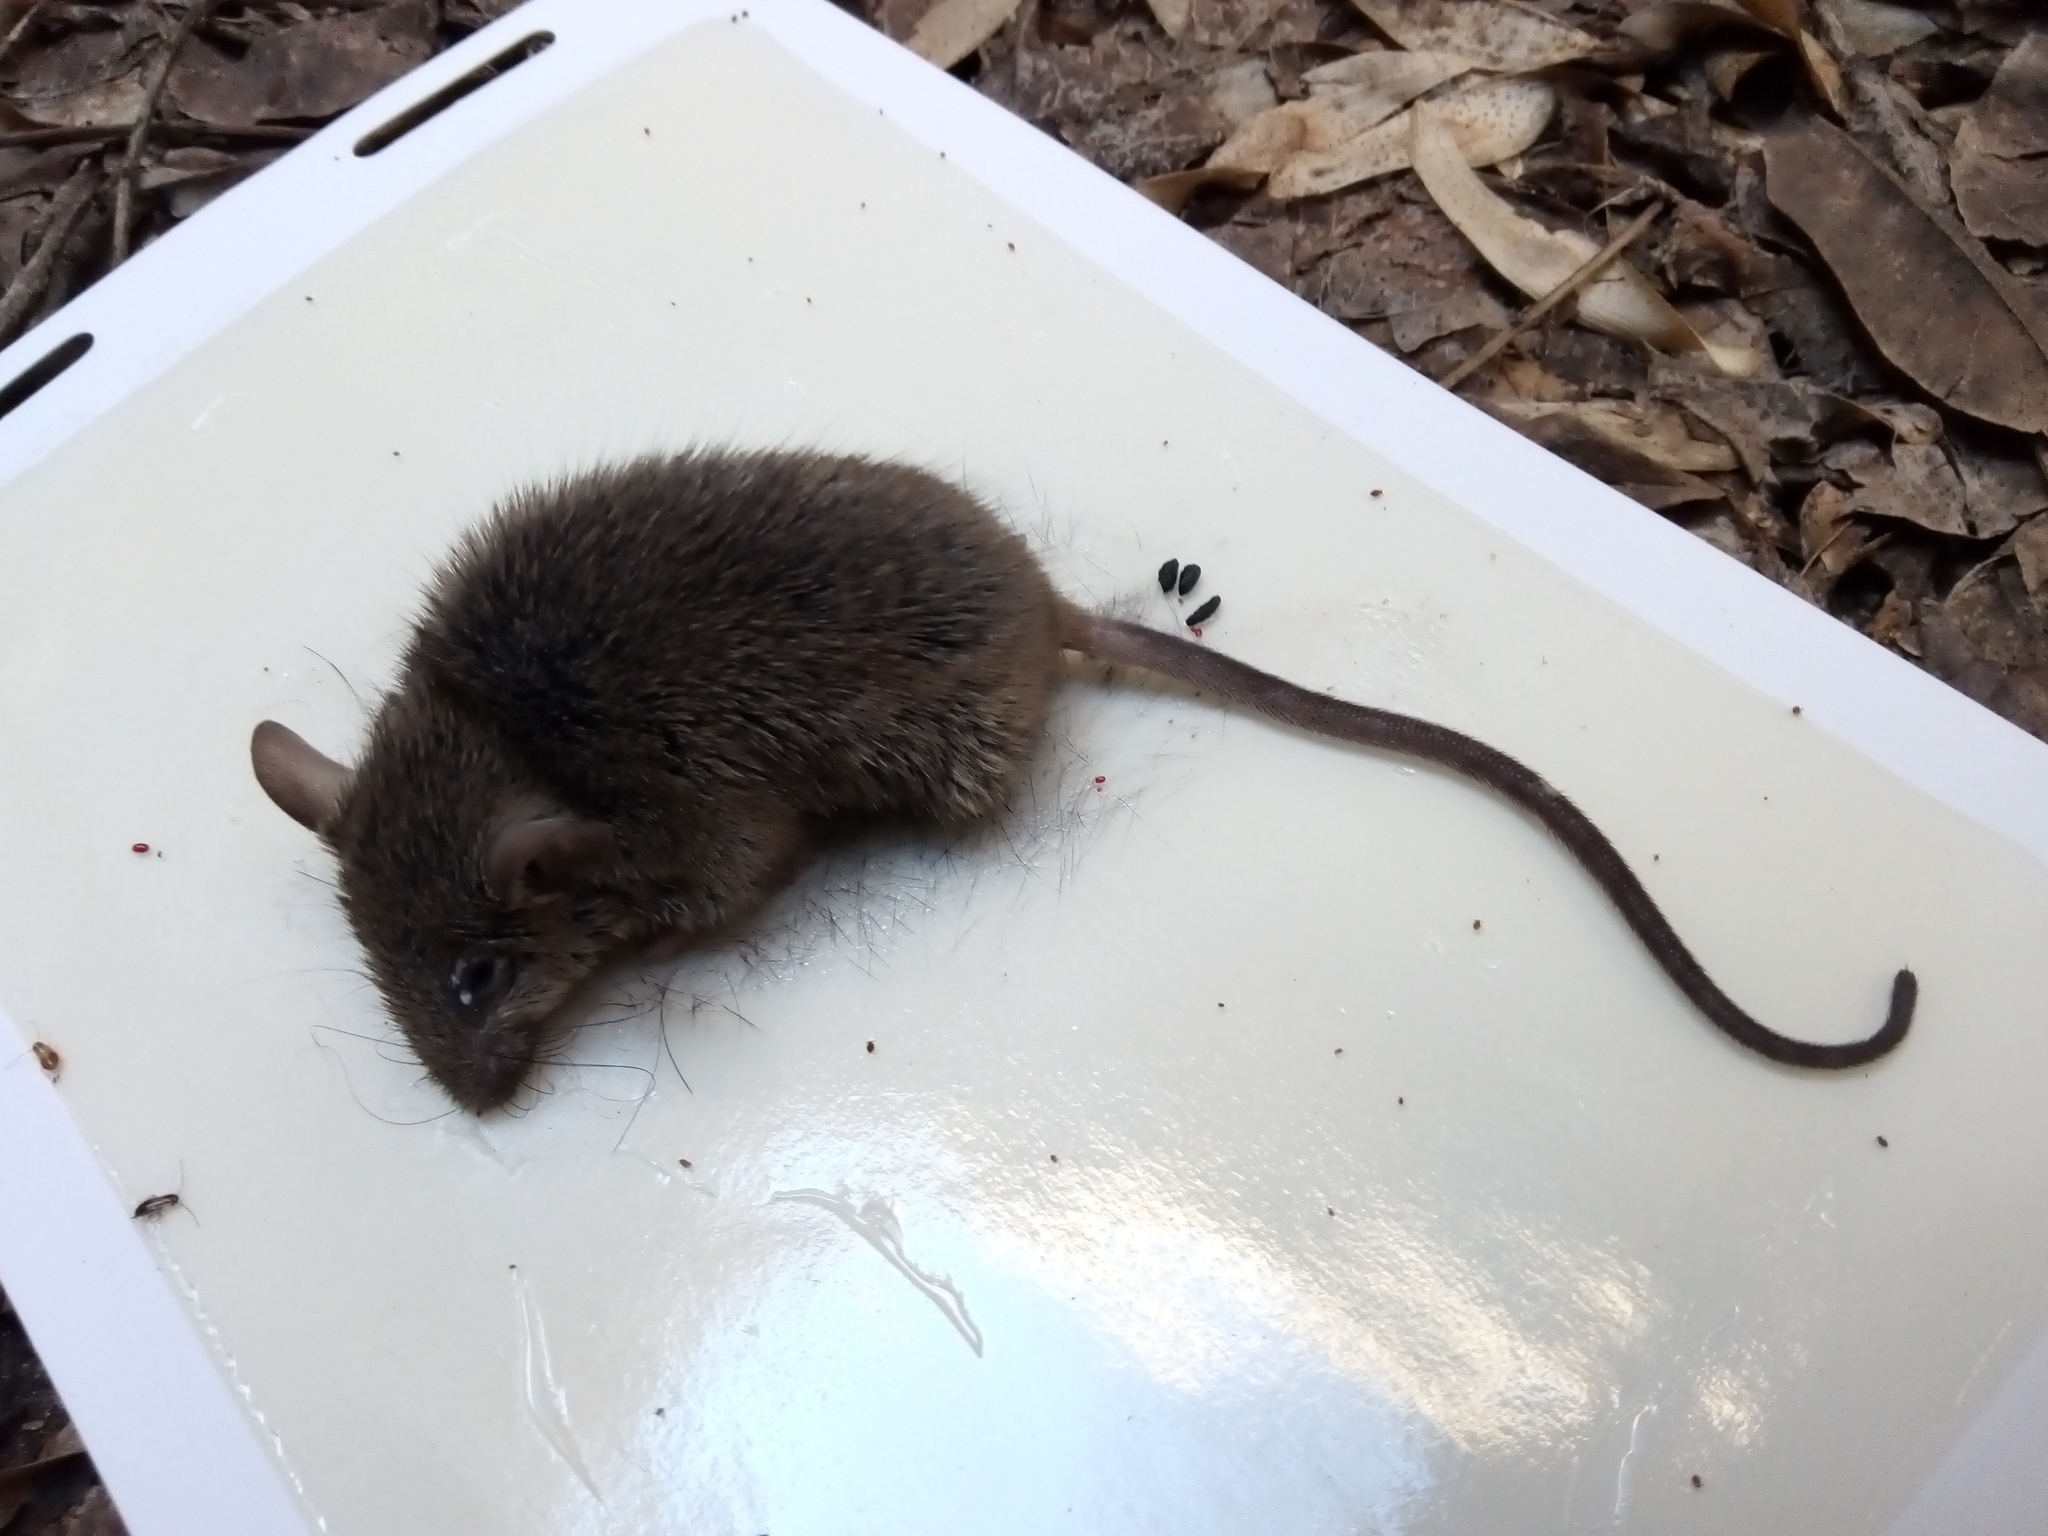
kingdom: Animalia
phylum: Chordata
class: Mammalia
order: Rodentia
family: Muridae
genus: Mus
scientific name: Mus musculus
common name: House mouse
